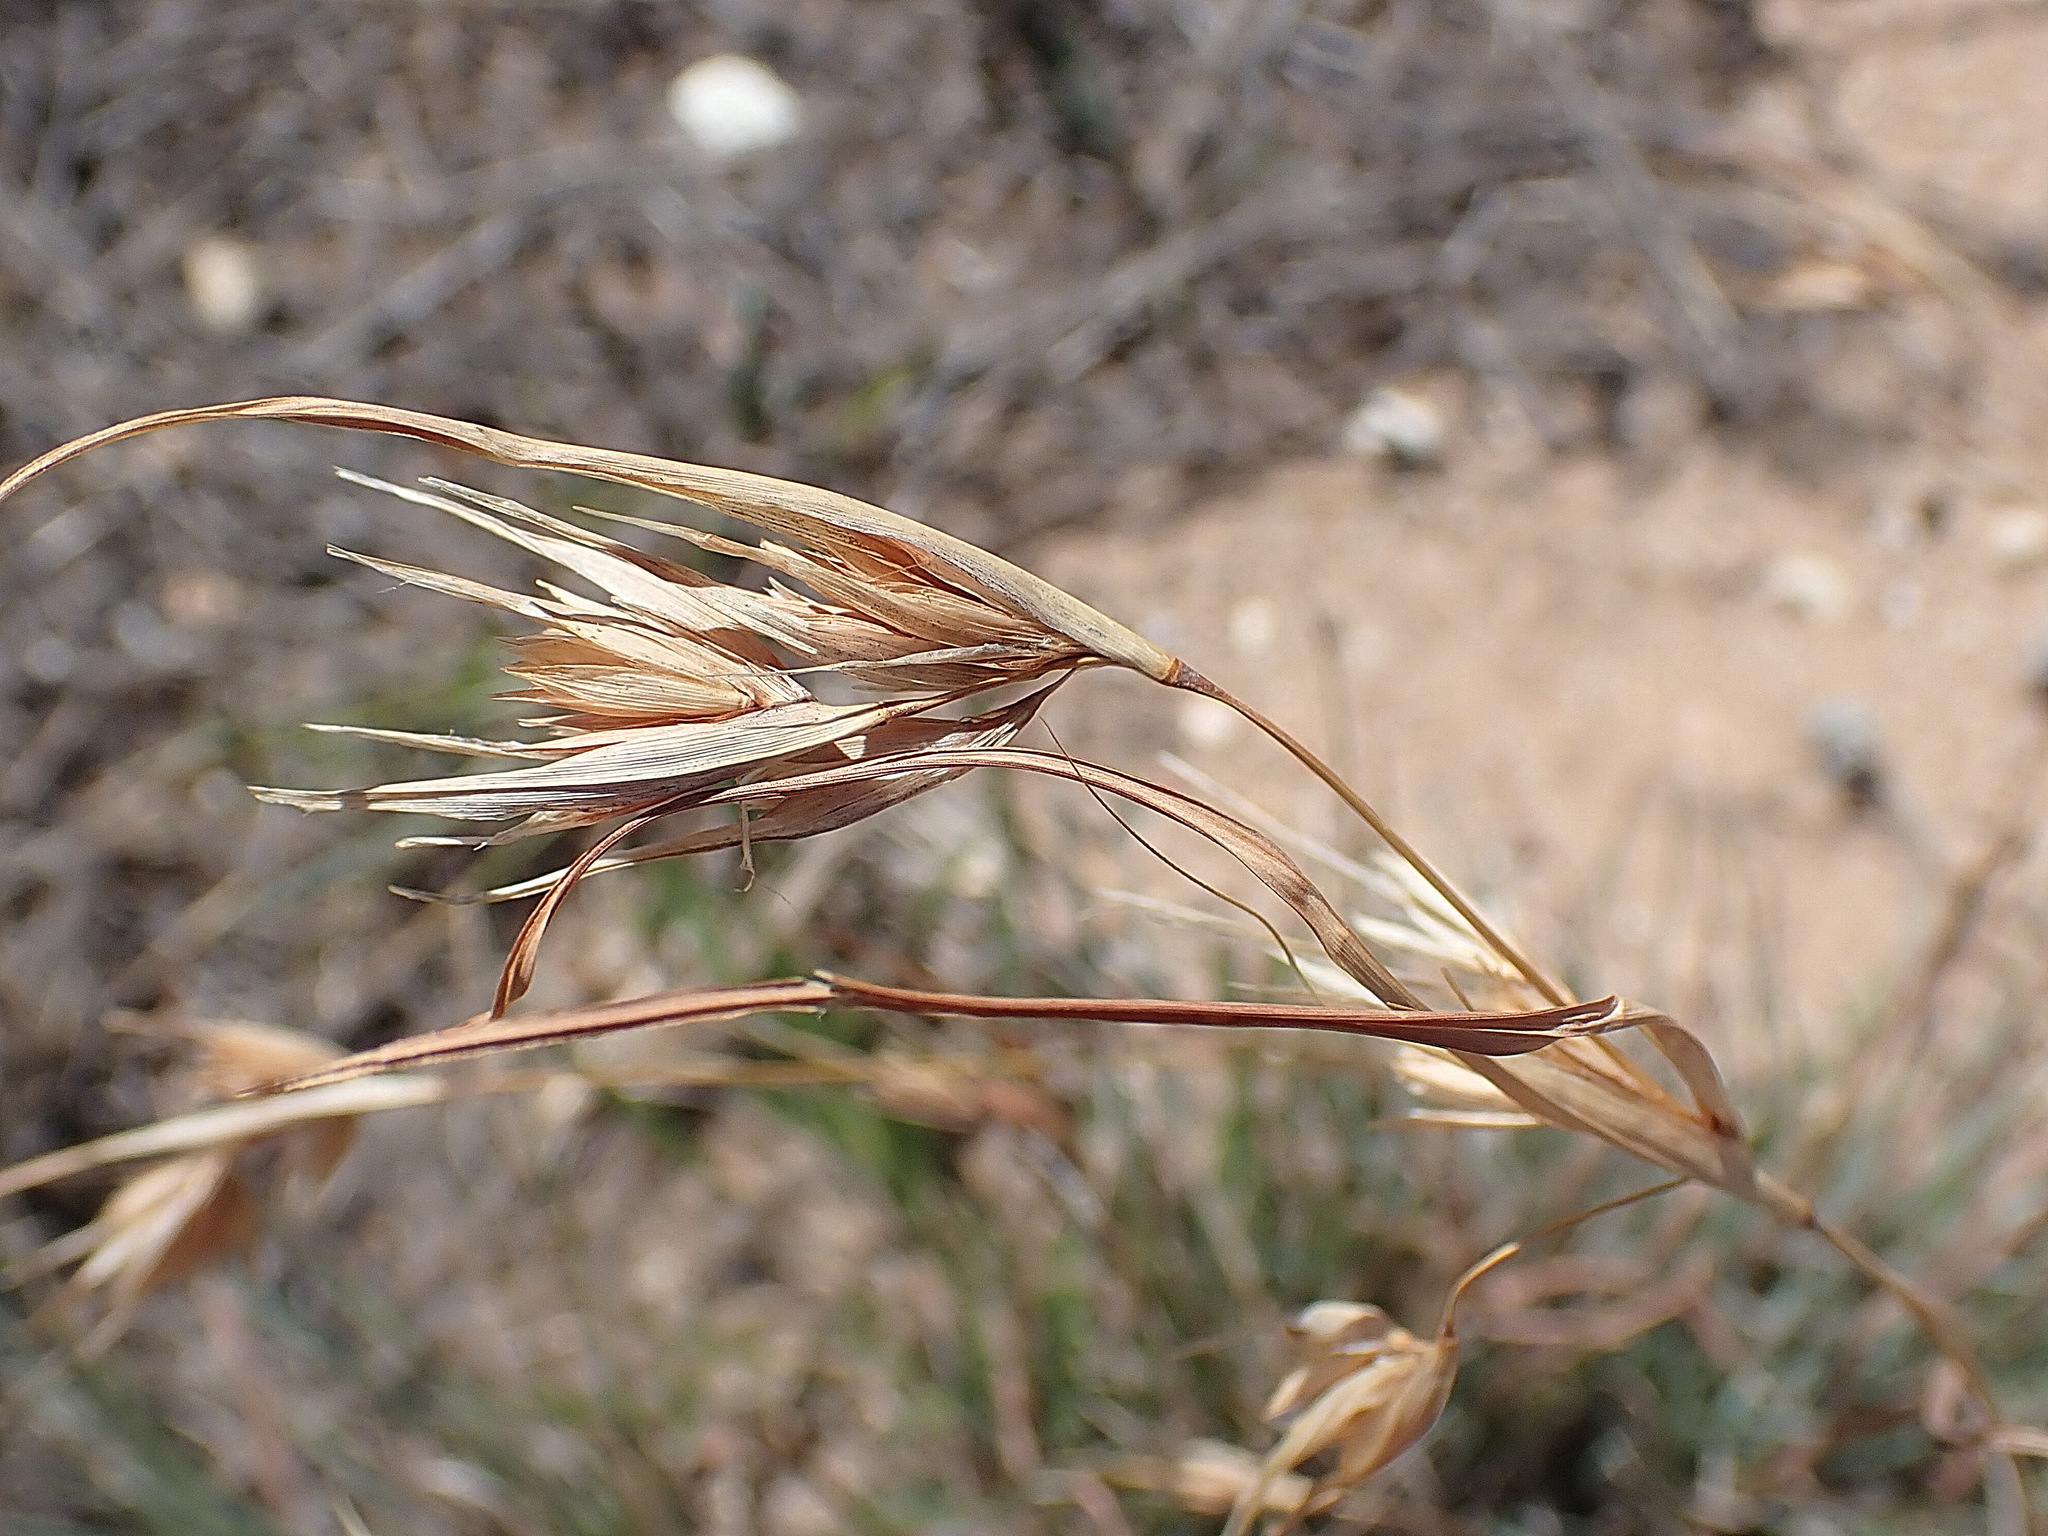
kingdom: Plantae
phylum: Tracheophyta
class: Liliopsida
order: Poales
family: Poaceae
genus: Themeda
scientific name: Themeda triandra
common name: Kangaroo grass
